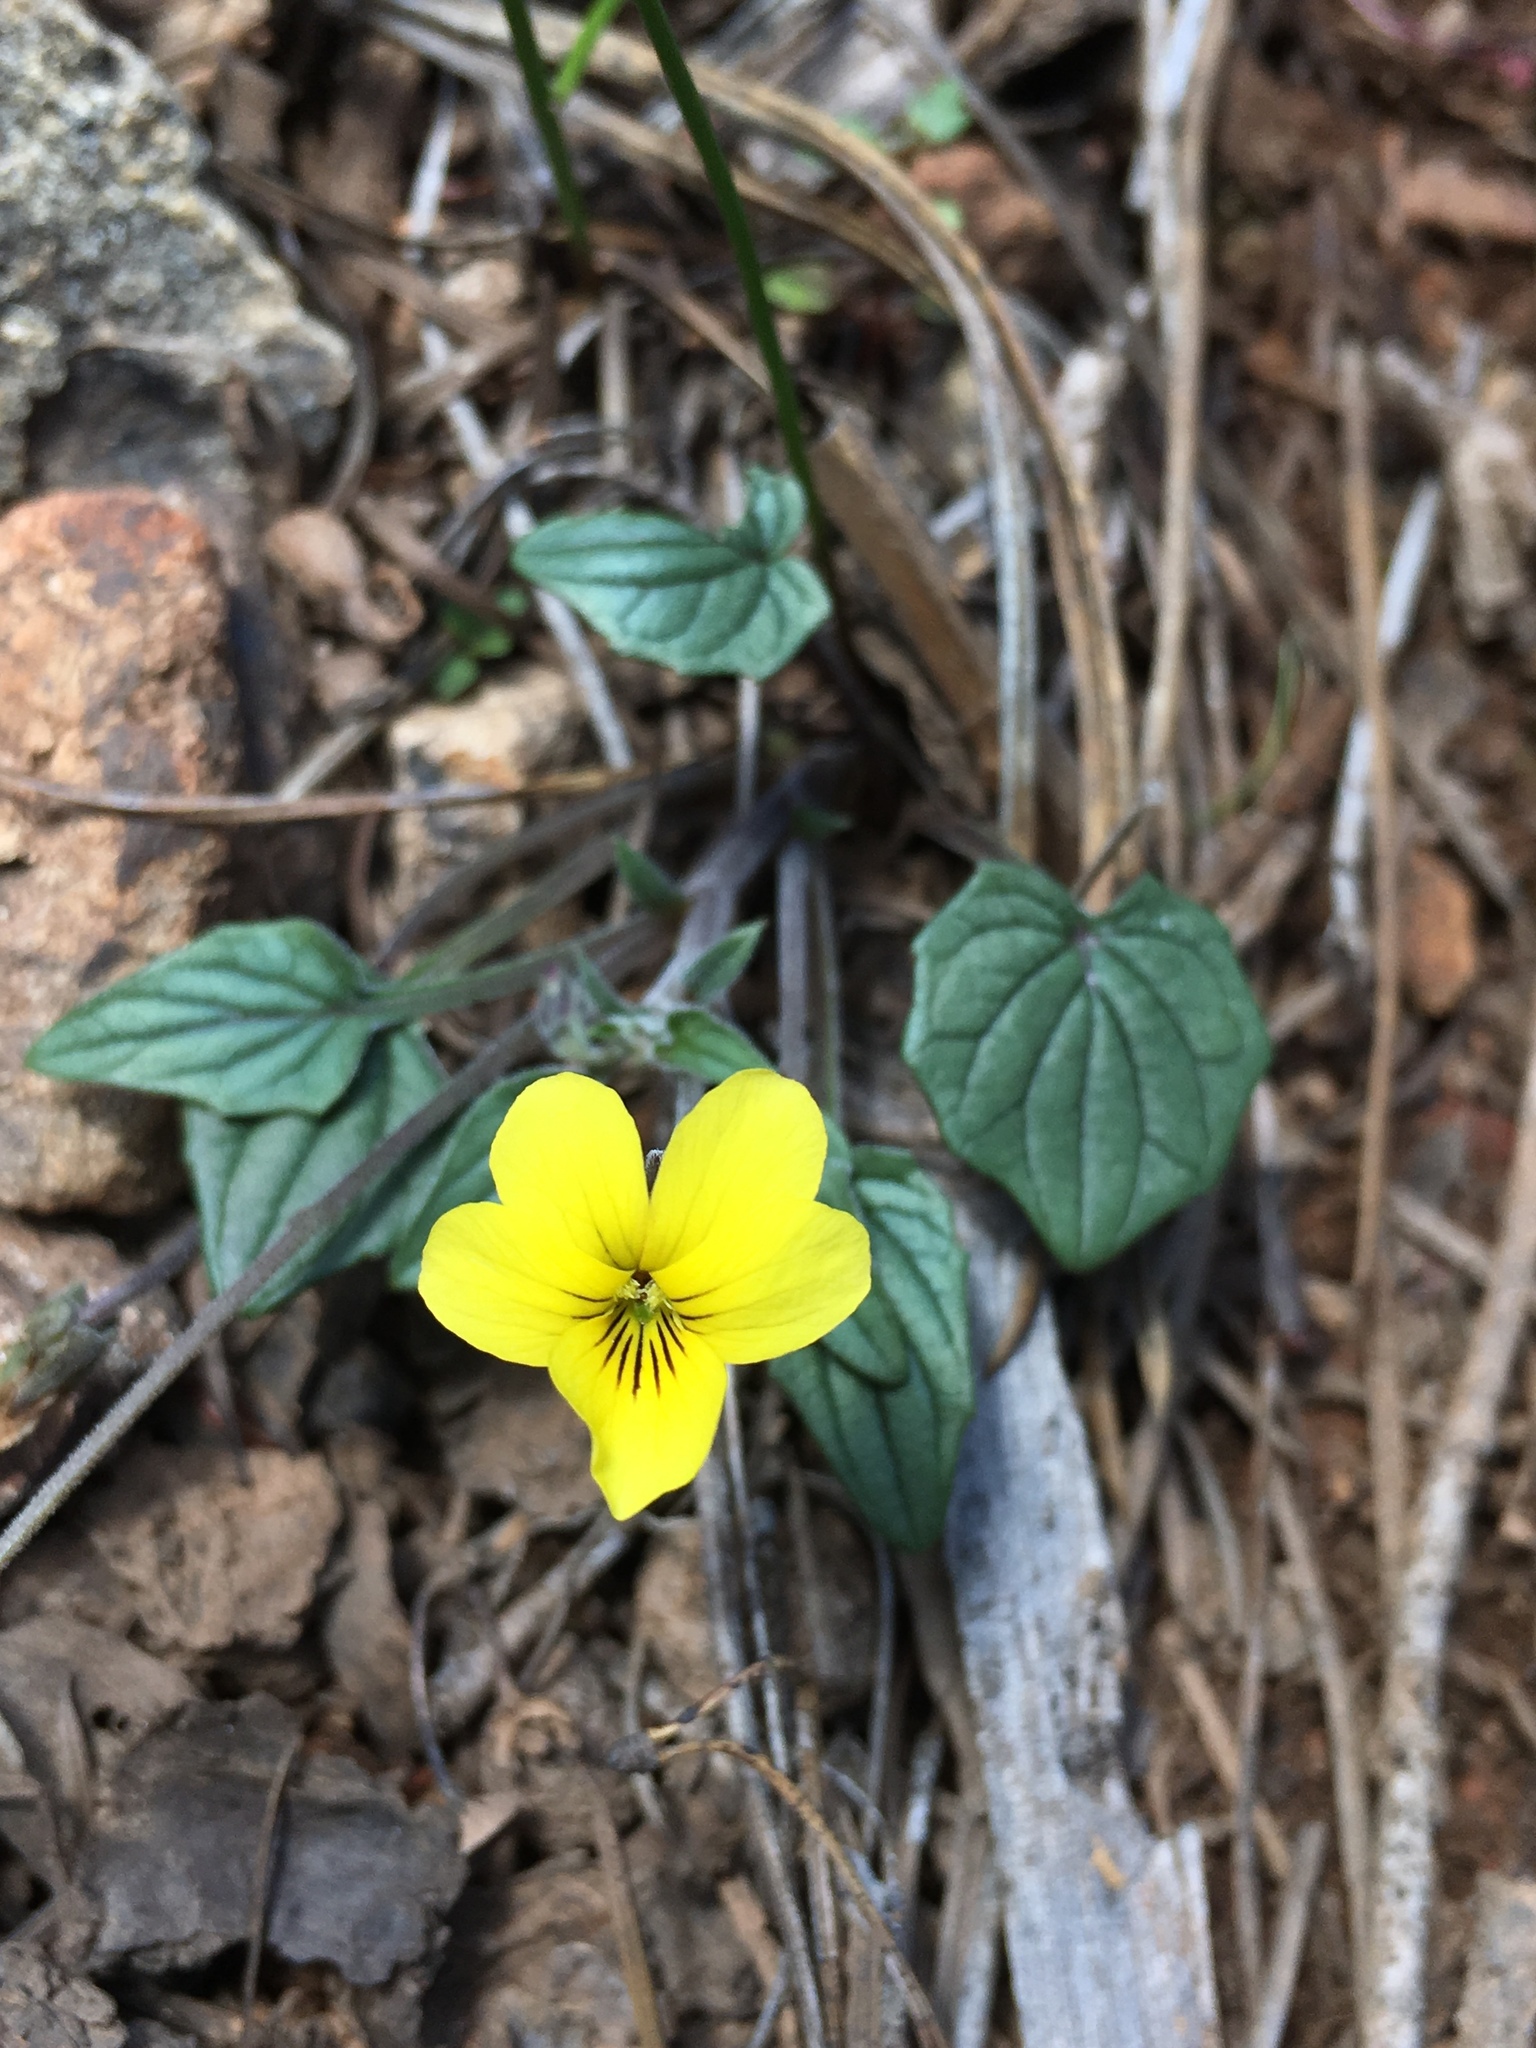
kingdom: Plantae
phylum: Tracheophyta
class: Magnoliopsida
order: Malpighiales
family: Violaceae
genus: Viola
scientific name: Viola purpurea
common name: Pine violet
